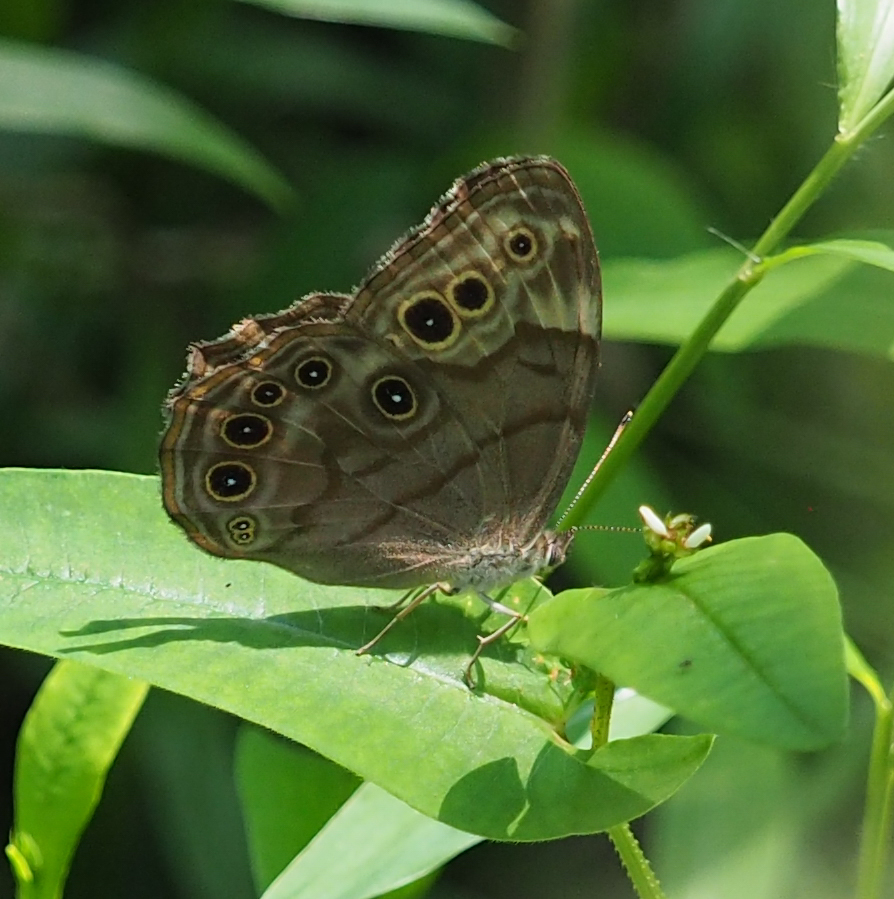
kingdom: Animalia
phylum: Arthropoda
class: Insecta
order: Lepidoptera
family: Nymphalidae
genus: Lethe
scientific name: Lethe anthedon
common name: Northern pearly-eye
